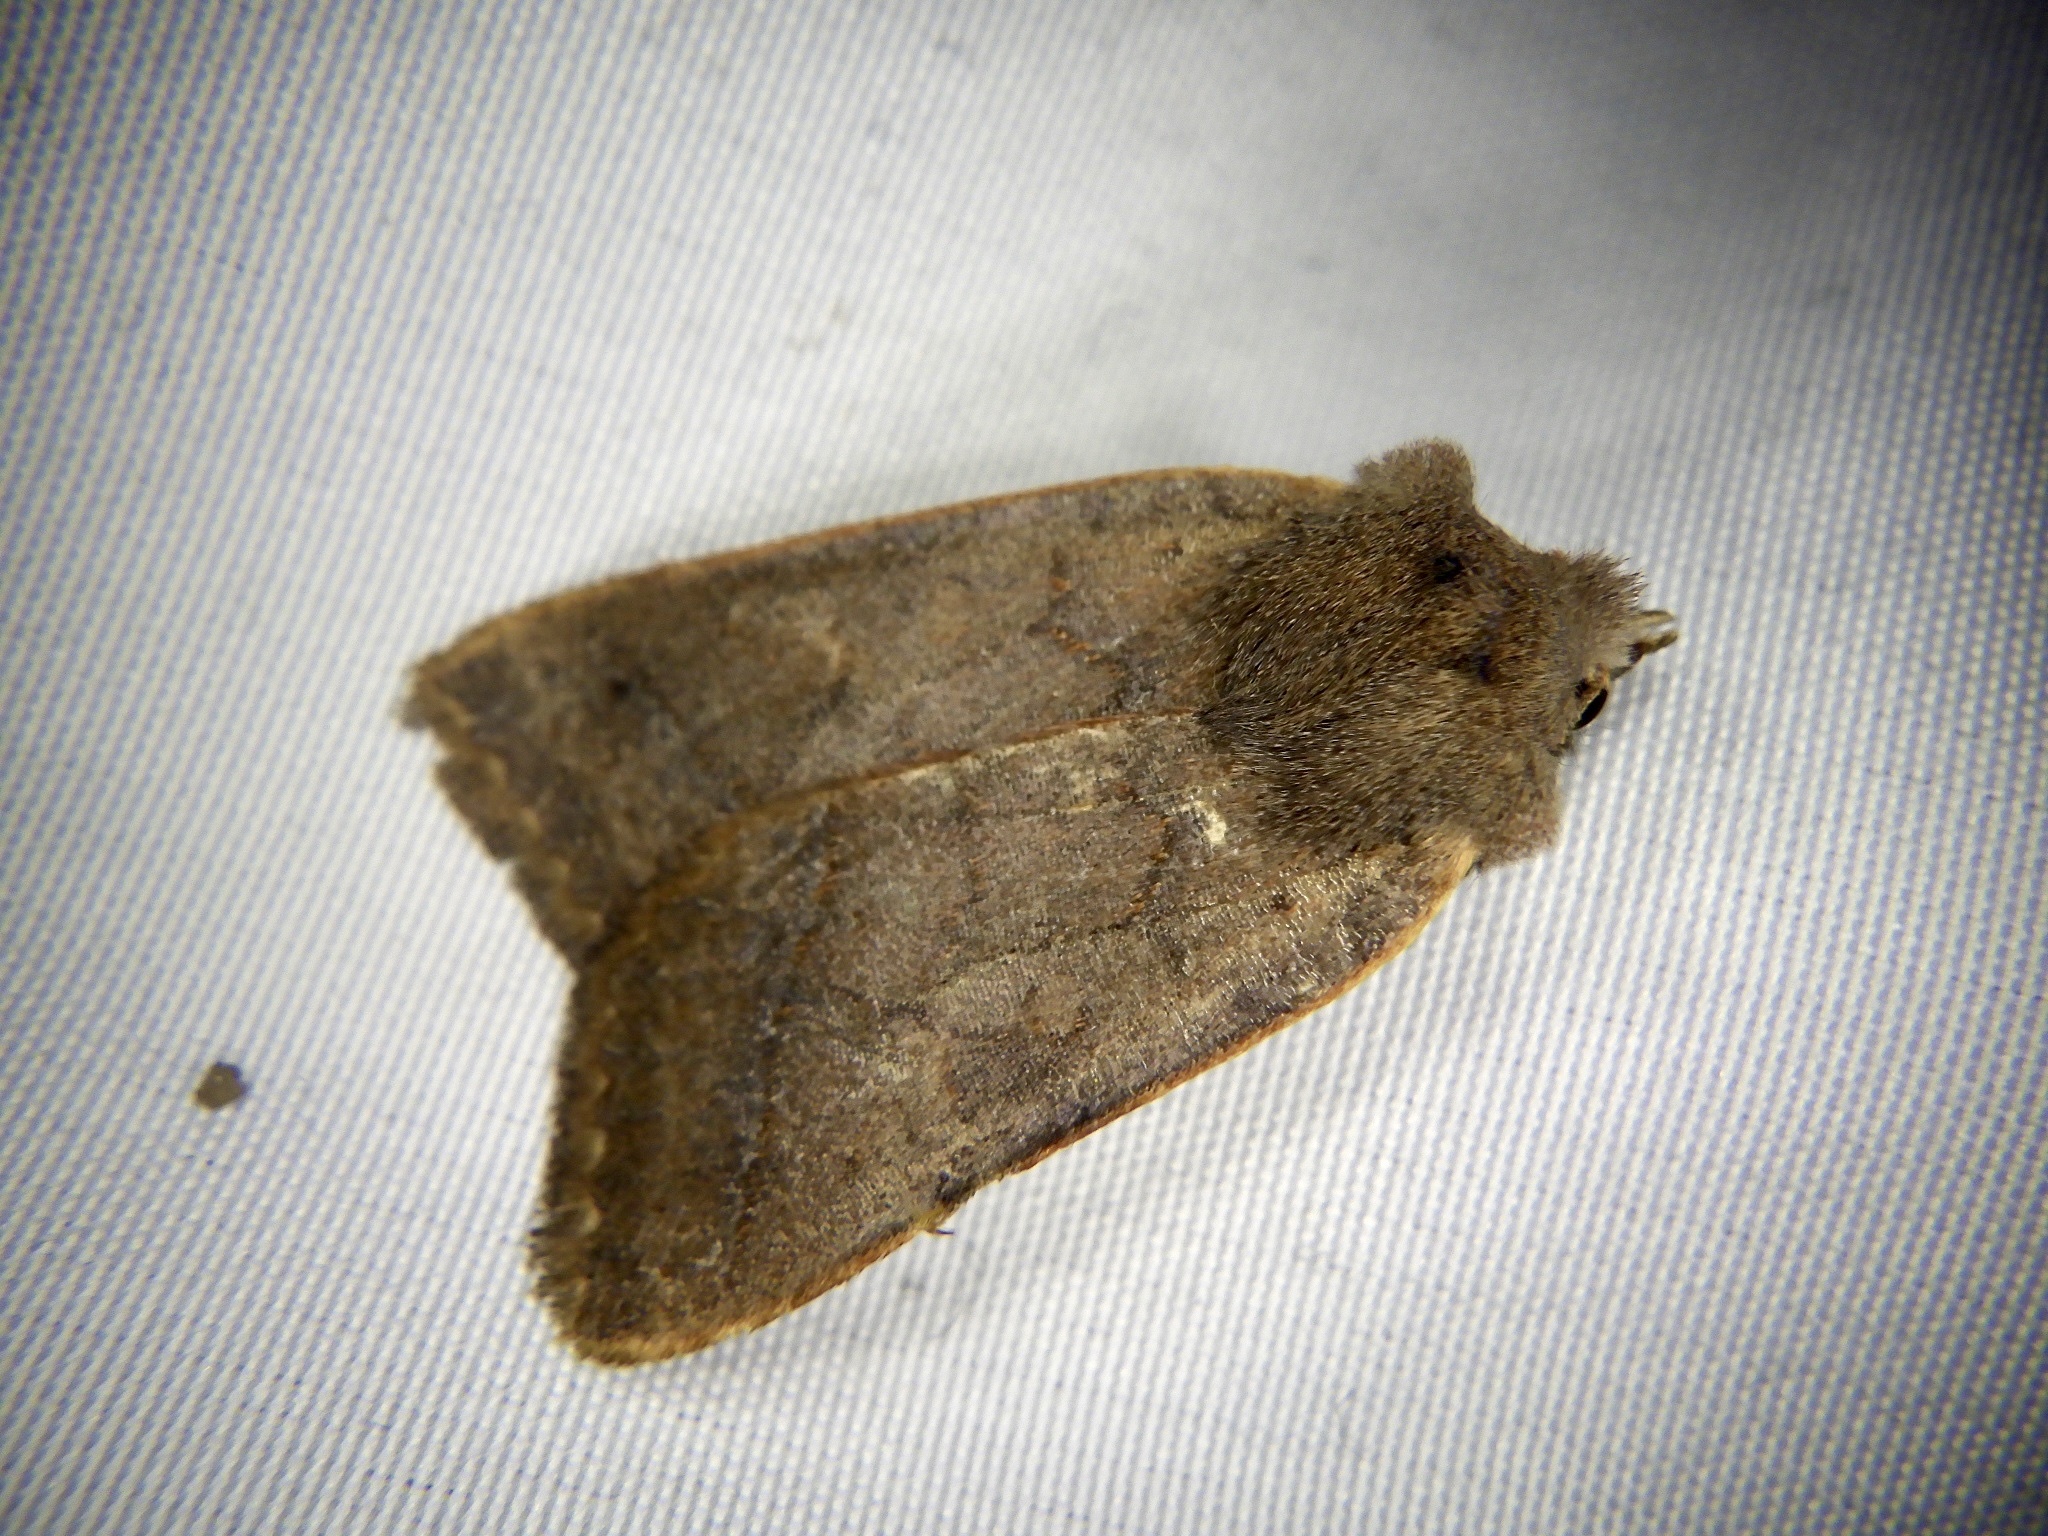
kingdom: Animalia
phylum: Arthropoda
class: Insecta
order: Lepidoptera
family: Noctuidae
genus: Vargalorta
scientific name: Vargalorta nawae
